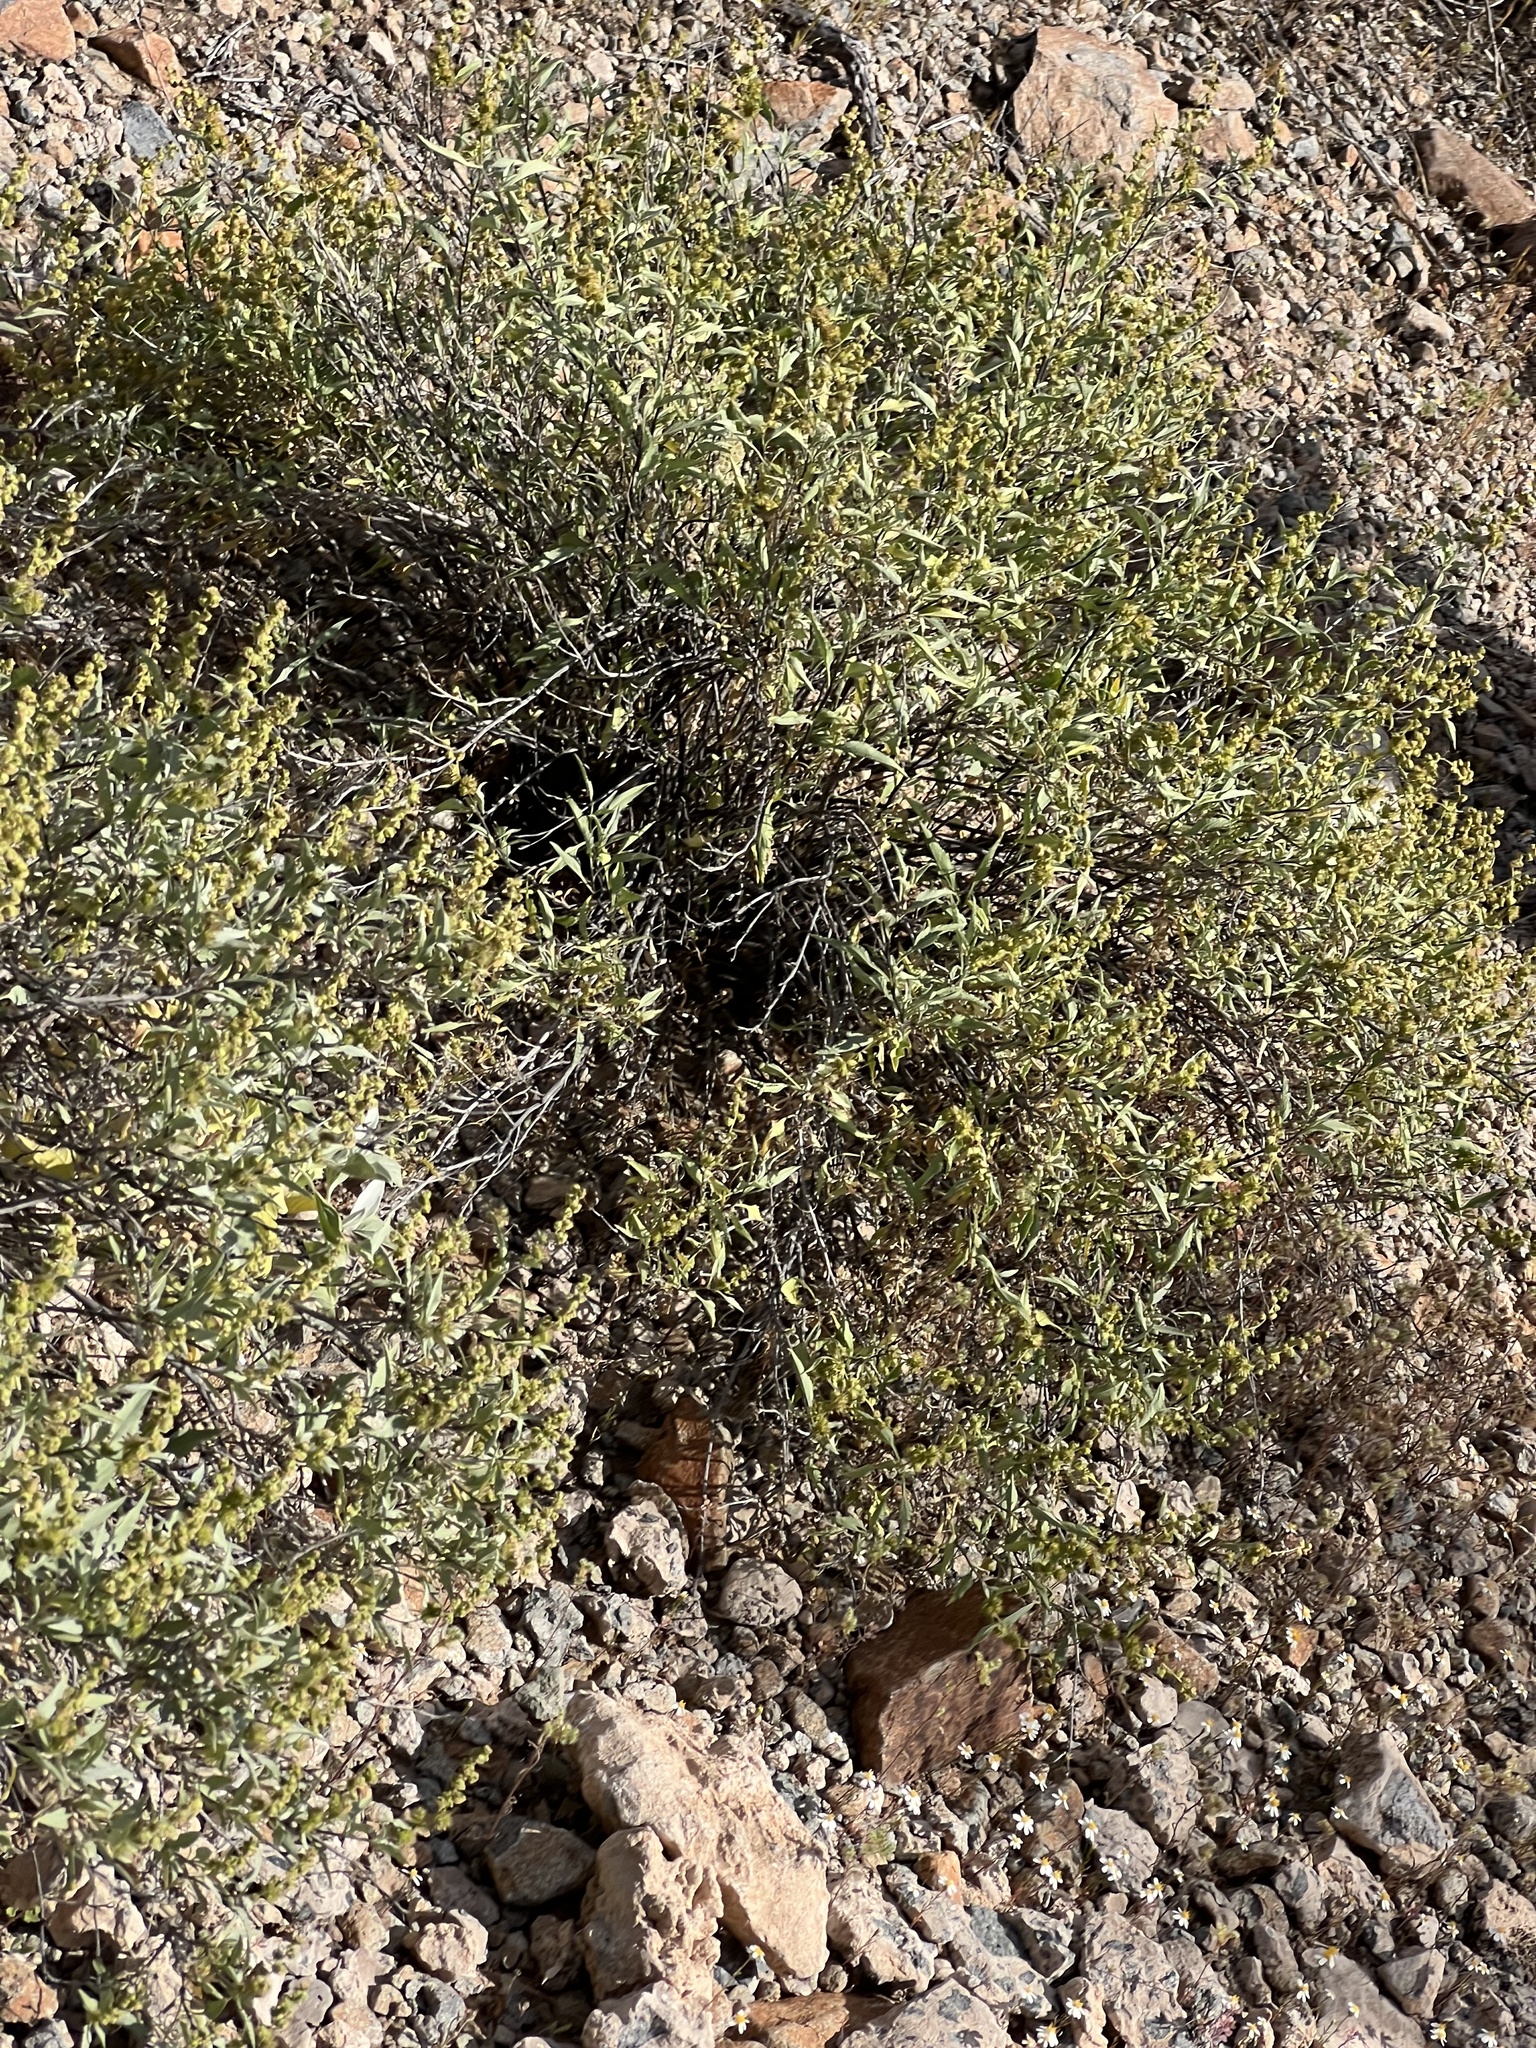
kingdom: Plantae
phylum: Tracheophyta
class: Magnoliopsida
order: Asterales
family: Asteraceae
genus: Ambrosia
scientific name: Ambrosia deltoidea
